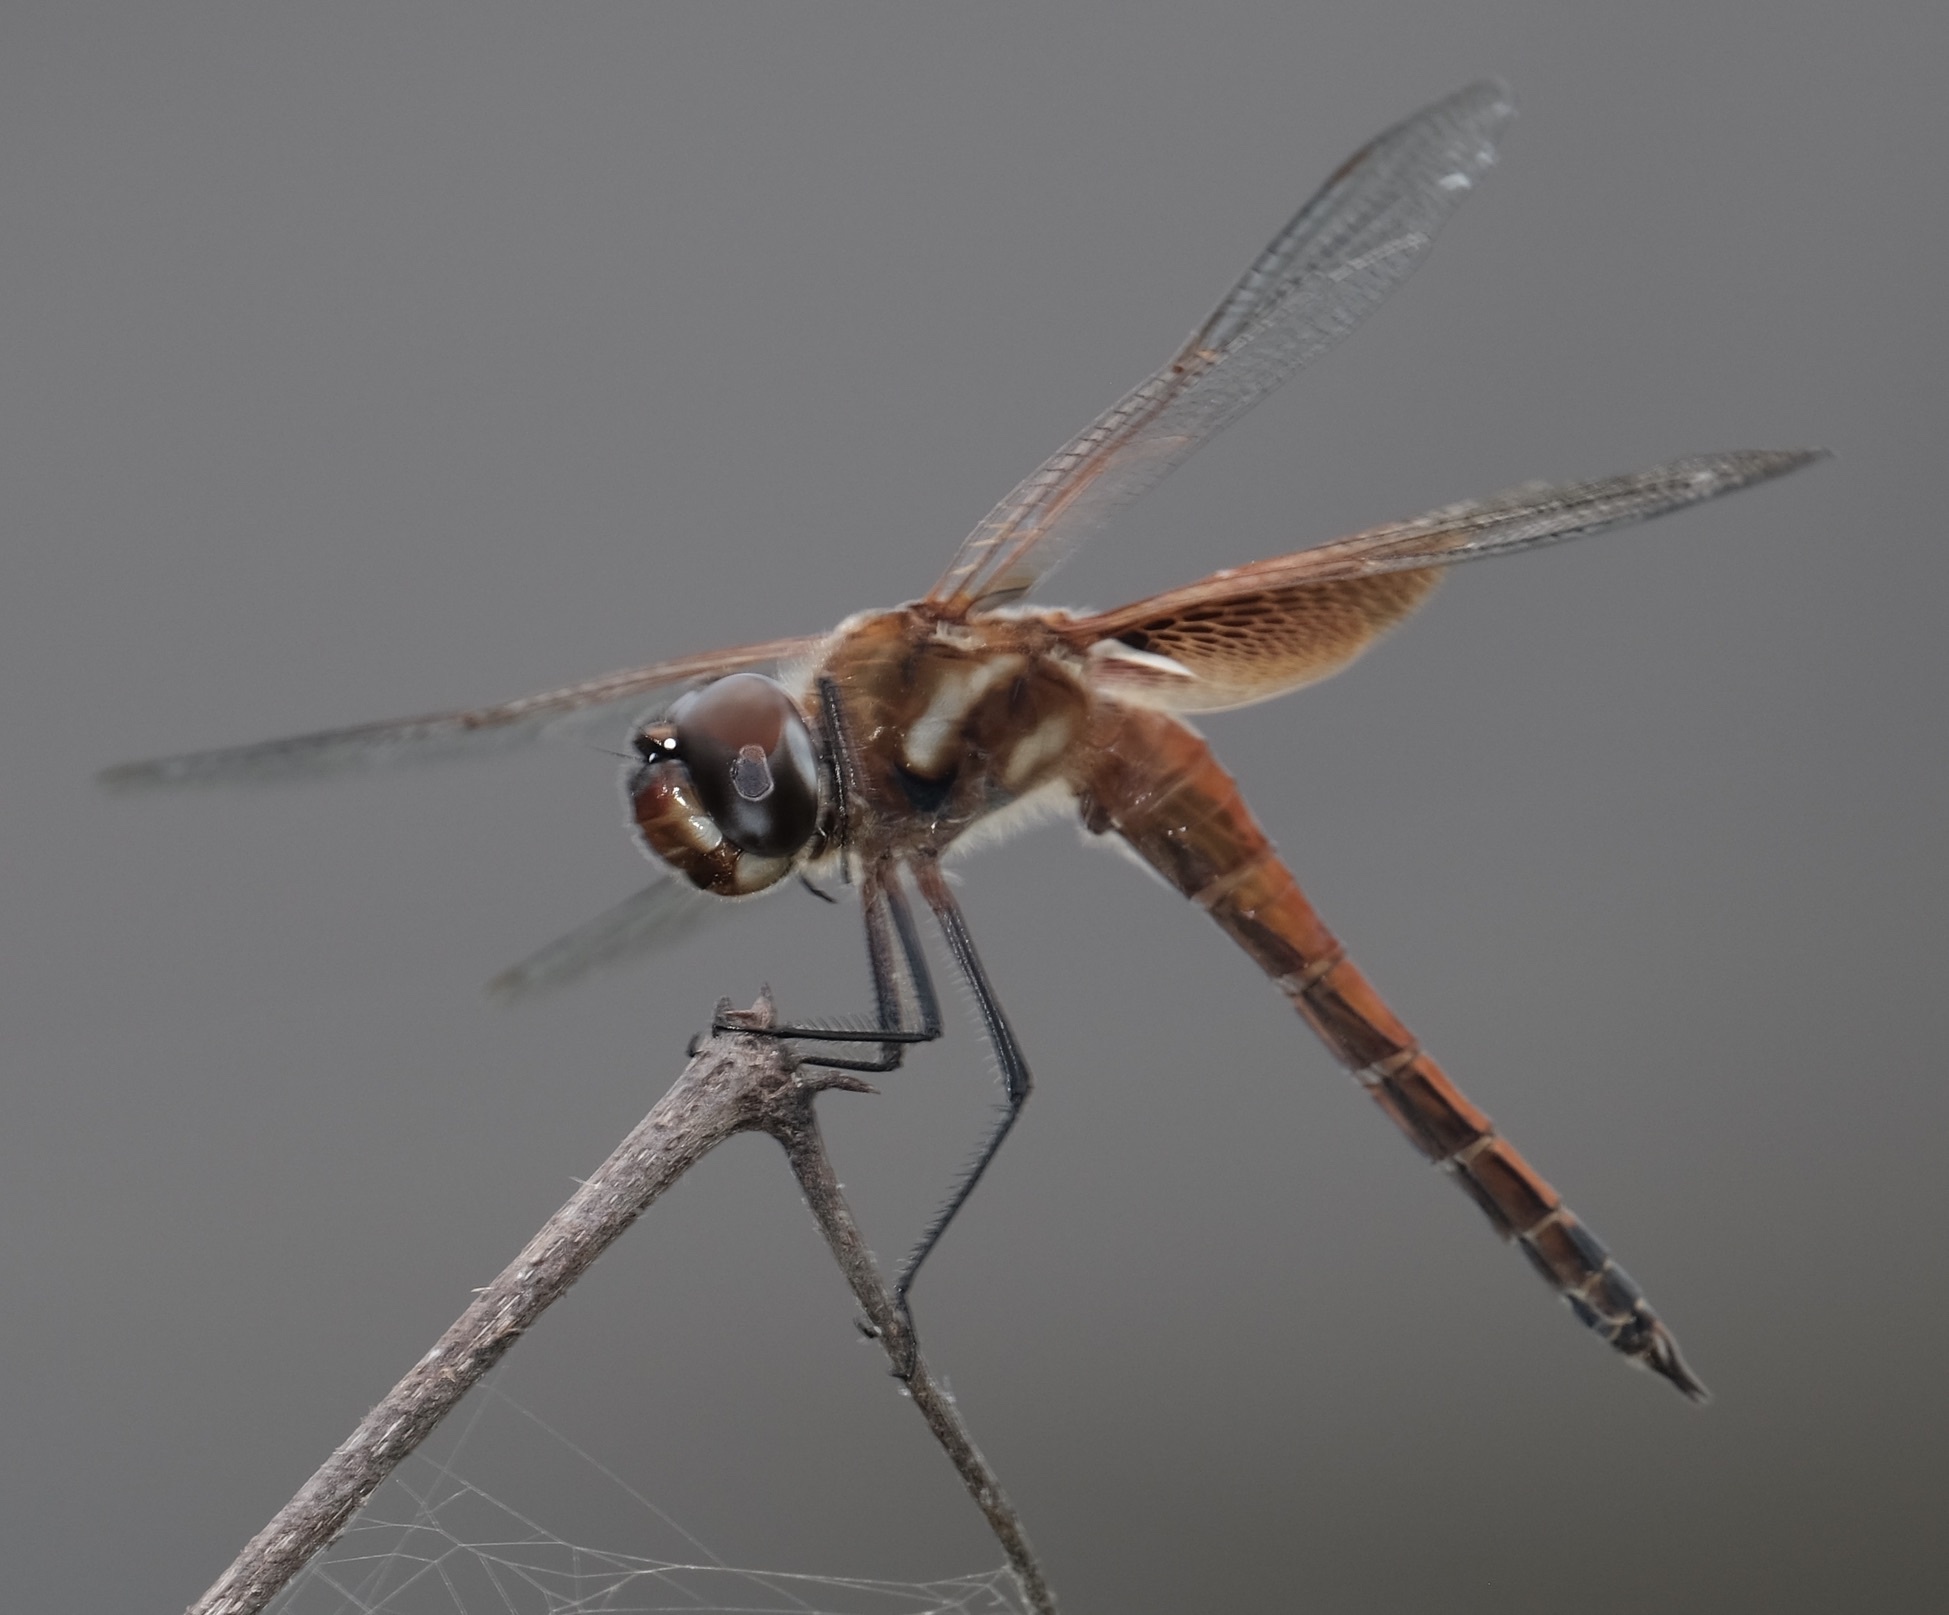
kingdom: Animalia
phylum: Arthropoda
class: Insecta
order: Odonata
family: Libellulidae
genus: Tramea
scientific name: Tramea darwini
